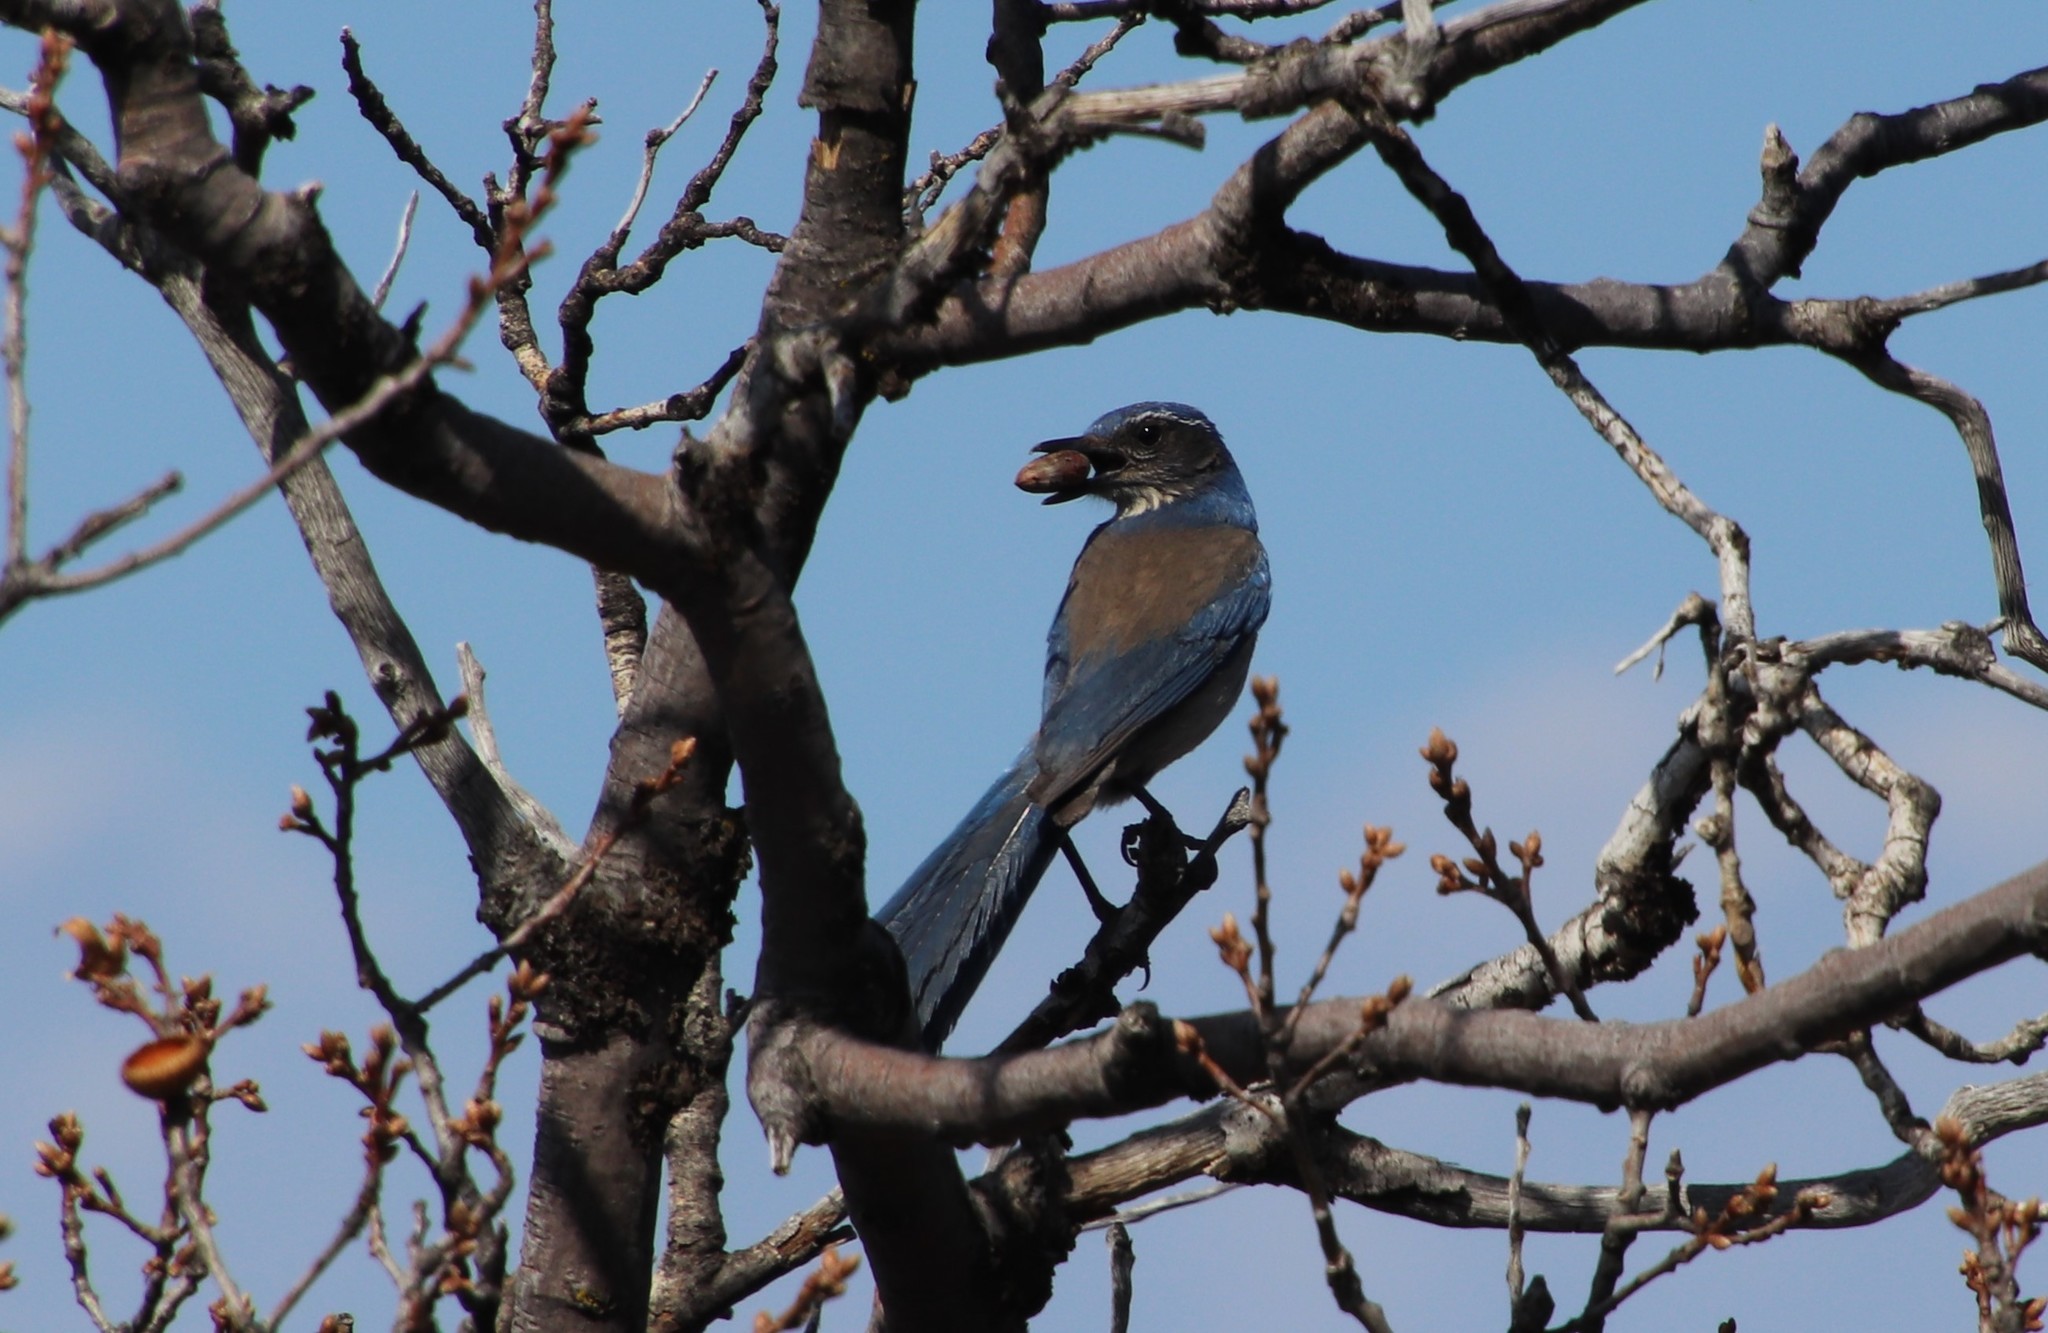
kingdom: Animalia
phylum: Chordata
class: Aves
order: Passeriformes
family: Corvidae
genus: Aphelocoma
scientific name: Aphelocoma californica
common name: California scrub-jay
